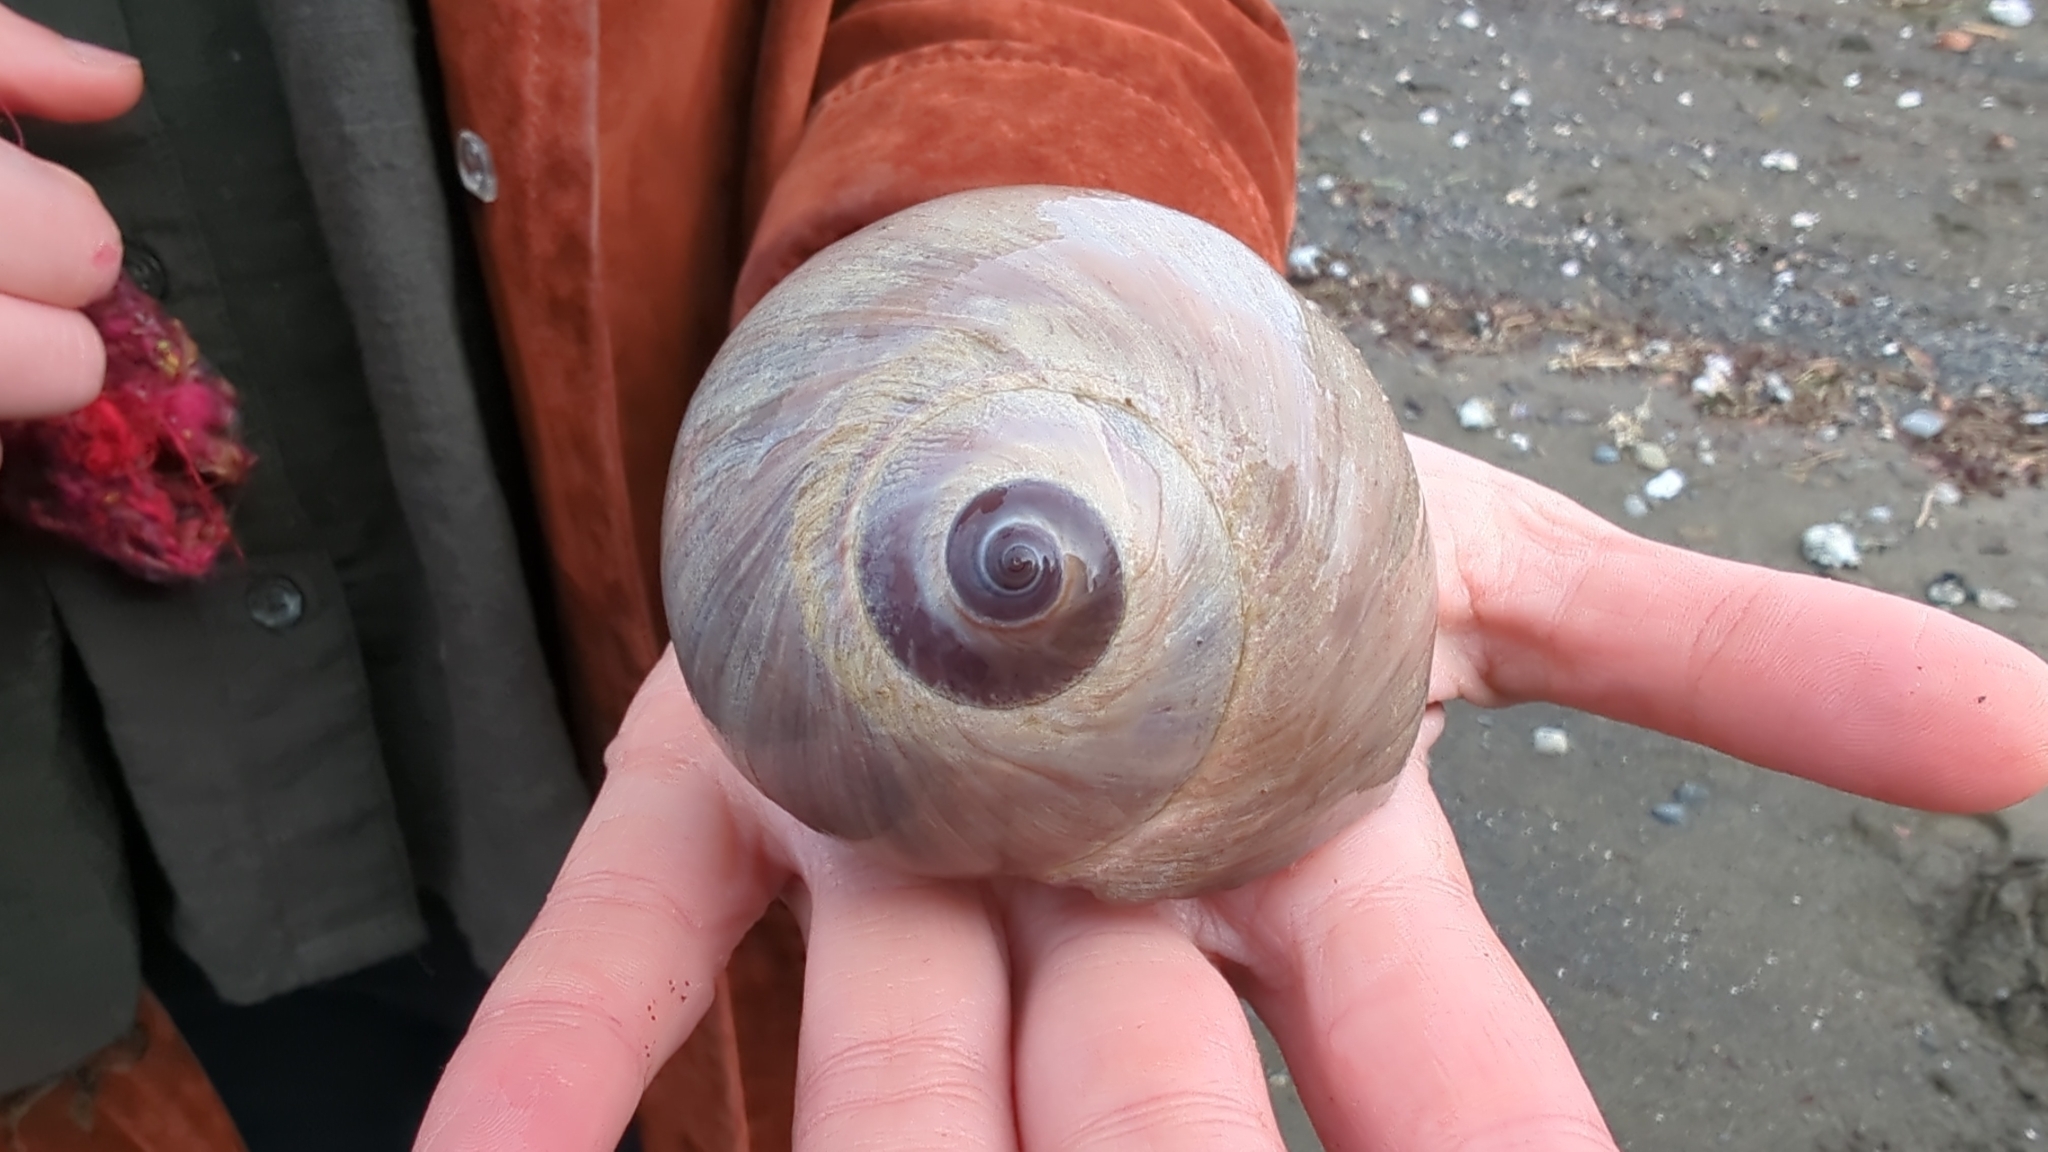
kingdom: Animalia
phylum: Mollusca
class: Gastropoda
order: Littorinimorpha
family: Naticidae
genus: Neverita
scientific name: Neverita lewisii
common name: Lewis' moonsnail
